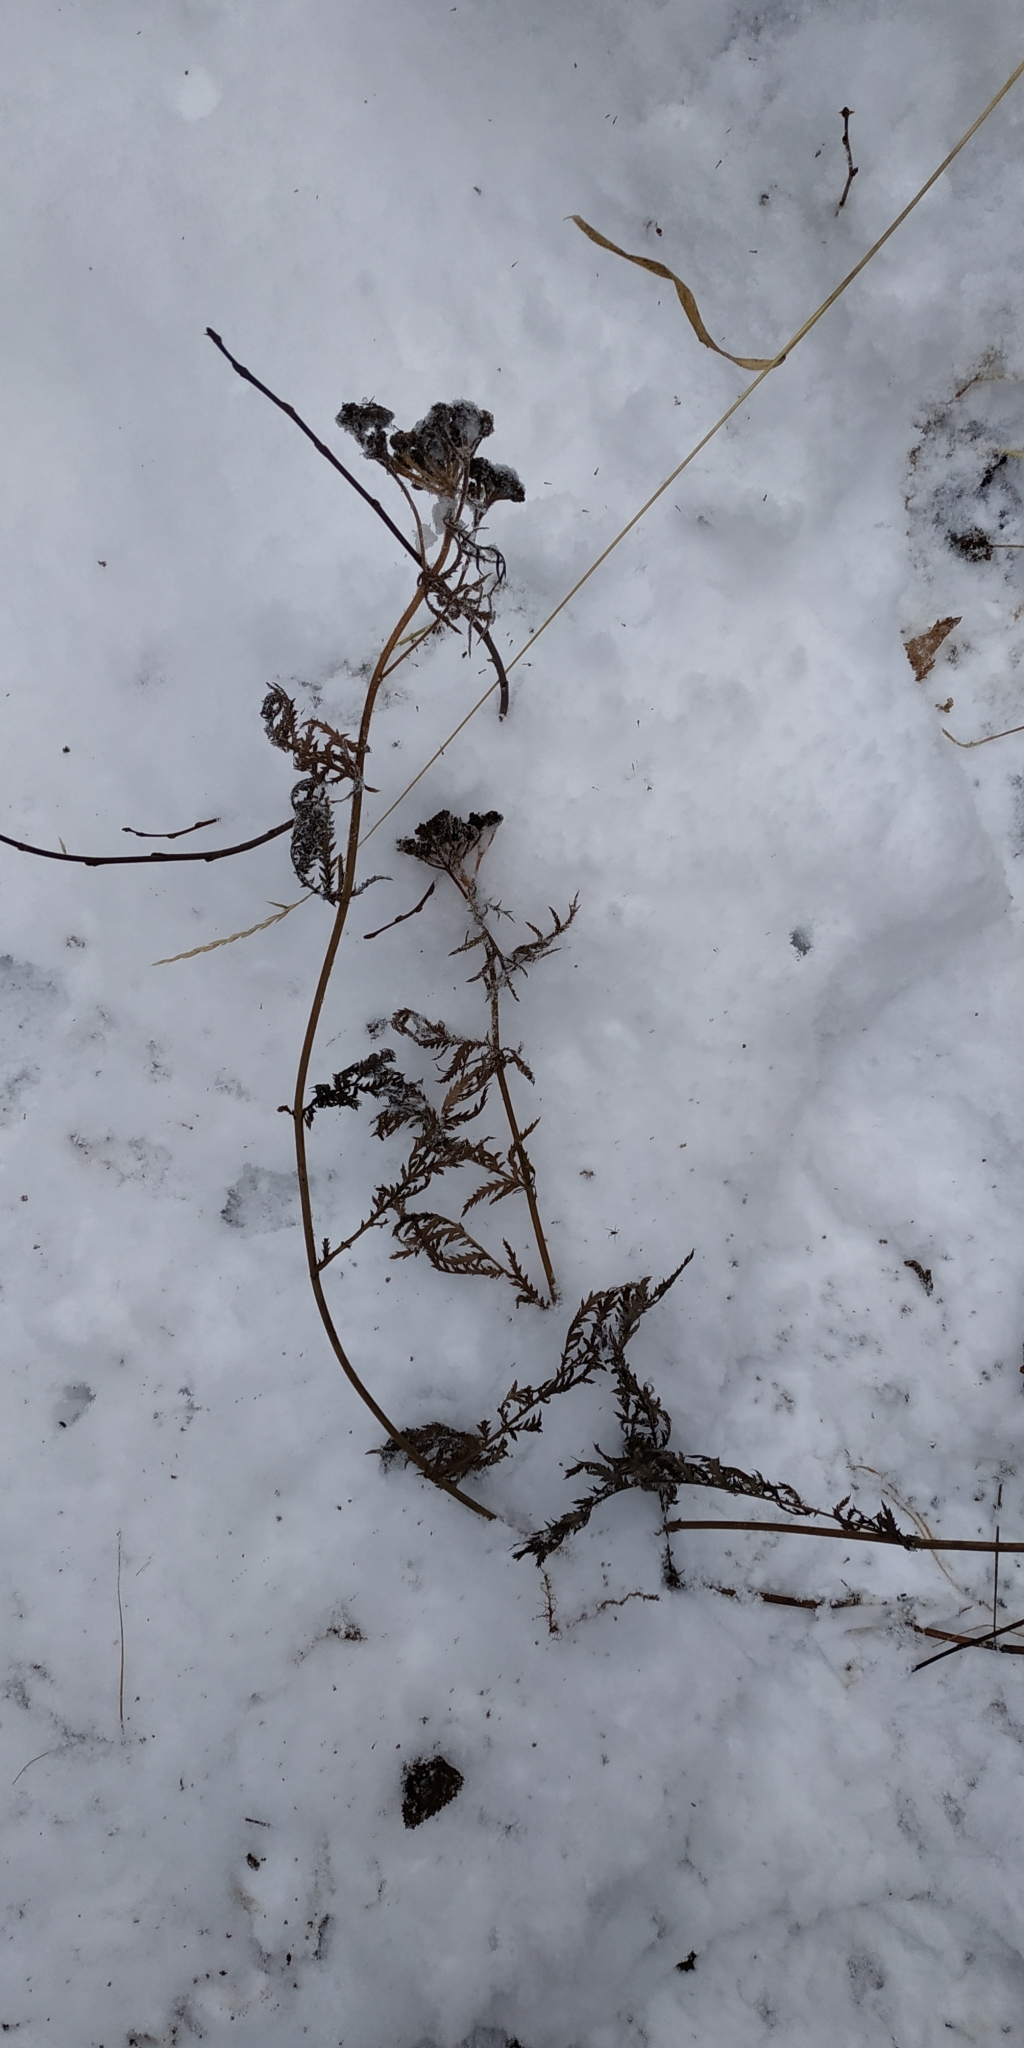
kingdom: Plantae
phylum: Tracheophyta
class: Magnoliopsida
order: Asterales
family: Asteraceae
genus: Tanacetum
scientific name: Tanacetum vulgare
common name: Common tansy
